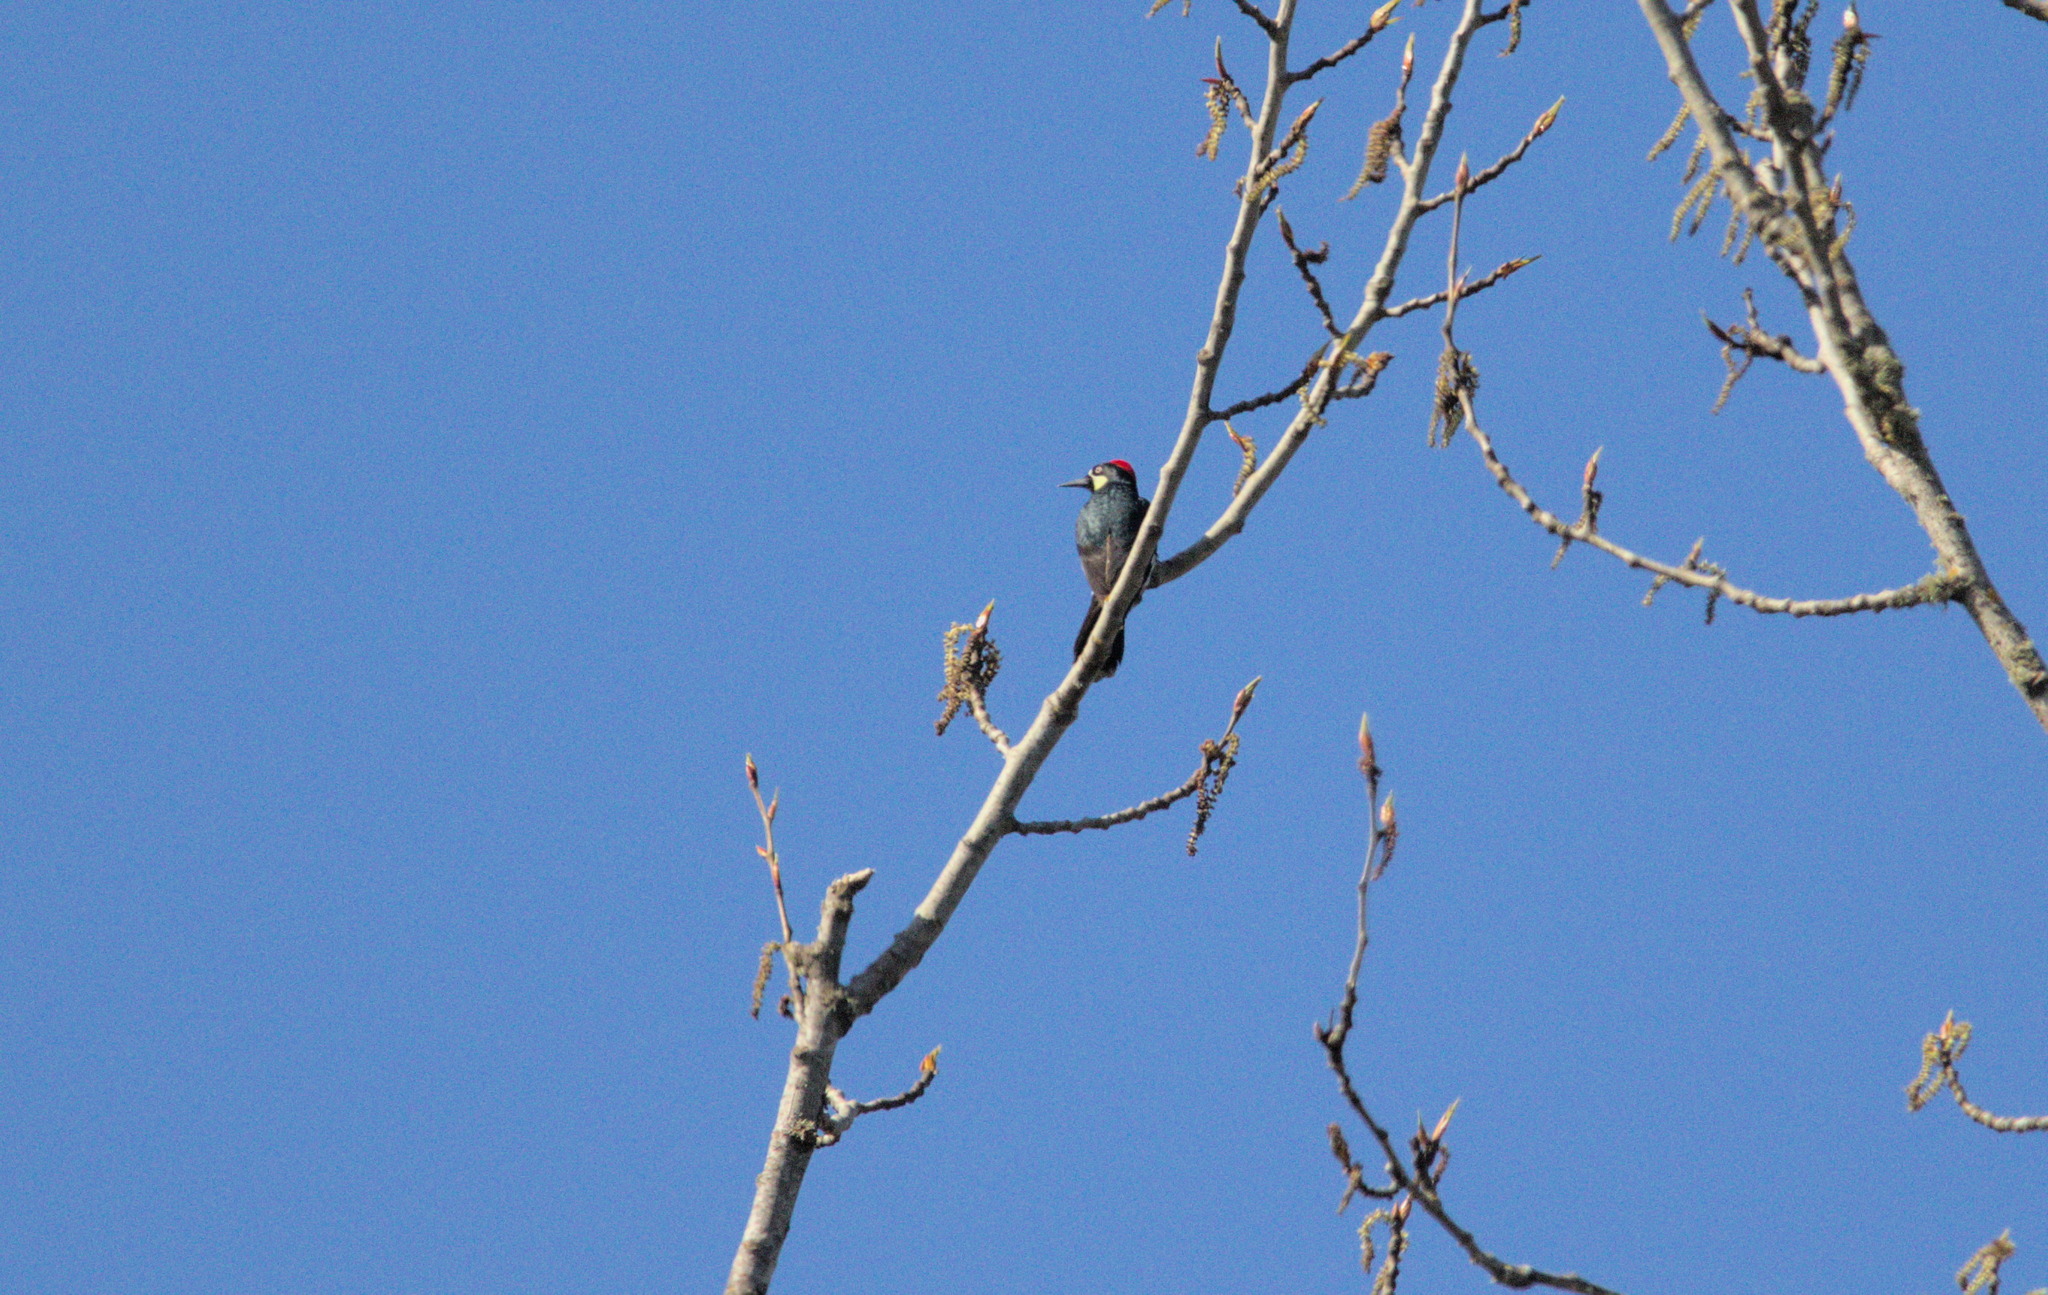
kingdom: Animalia
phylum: Chordata
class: Aves
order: Piciformes
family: Picidae
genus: Melanerpes
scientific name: Melanerpes formicivorus
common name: Acorn woodpecker
